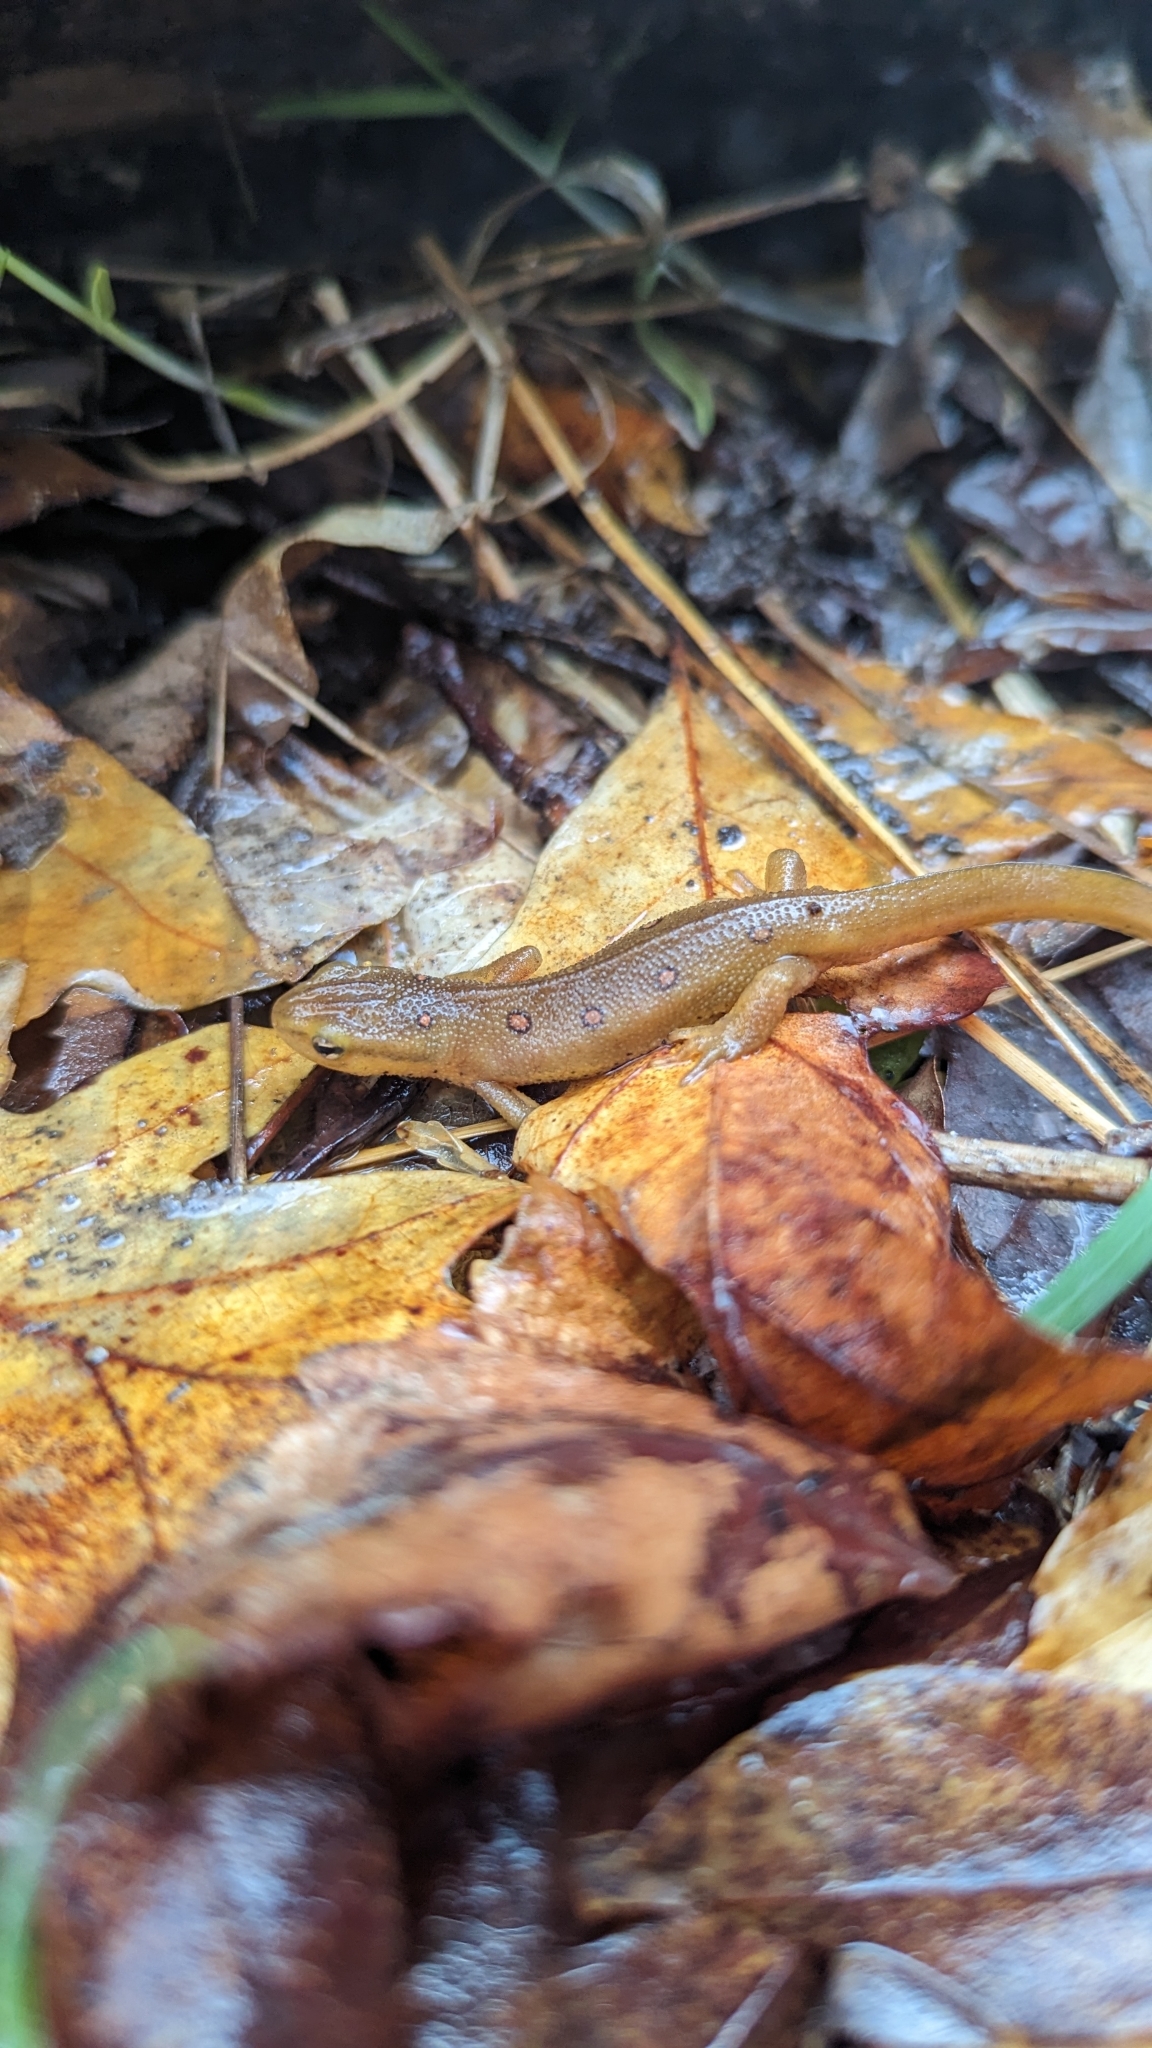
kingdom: Animalia
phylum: Chordata
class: Amphibia
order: Caudata
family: Salamandridae
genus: Notophthalmus
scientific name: Notophthalmus viridescens
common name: Eastern newt
